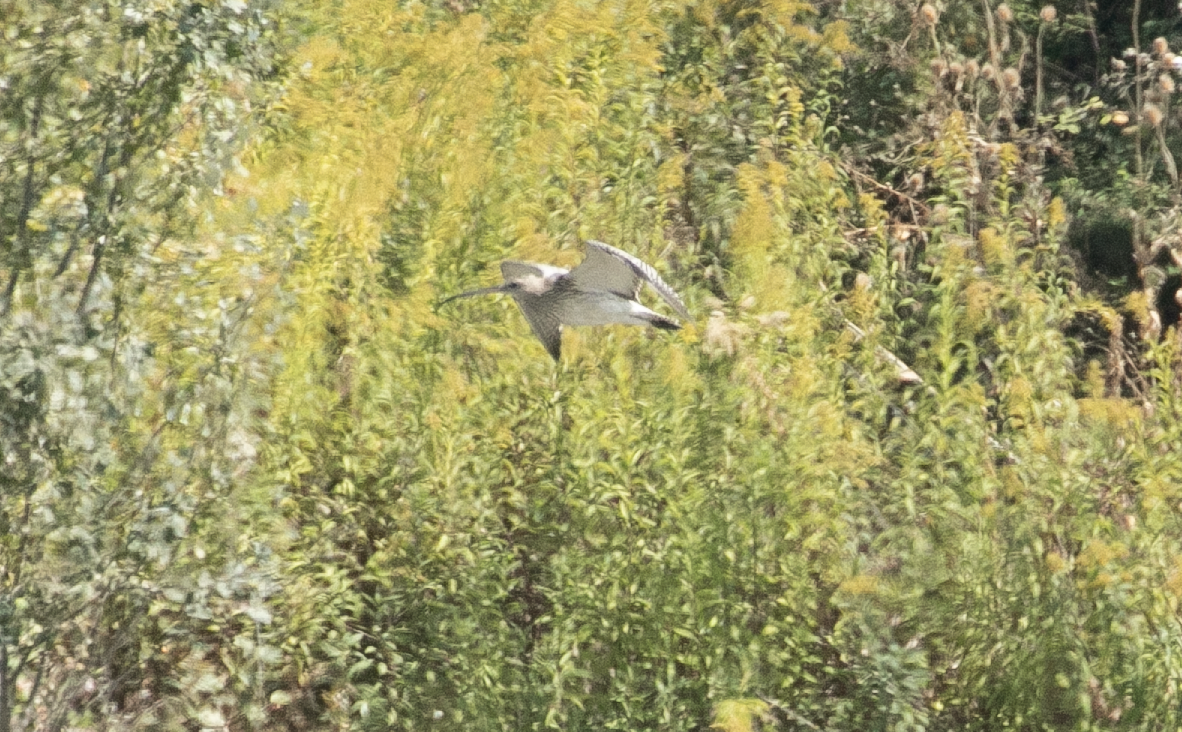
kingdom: Animalia
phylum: Chordata
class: Aves
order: Charadriiformes
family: Scolopacidae
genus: Numenius
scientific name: Numenius arquata
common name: Eurasian curlew
